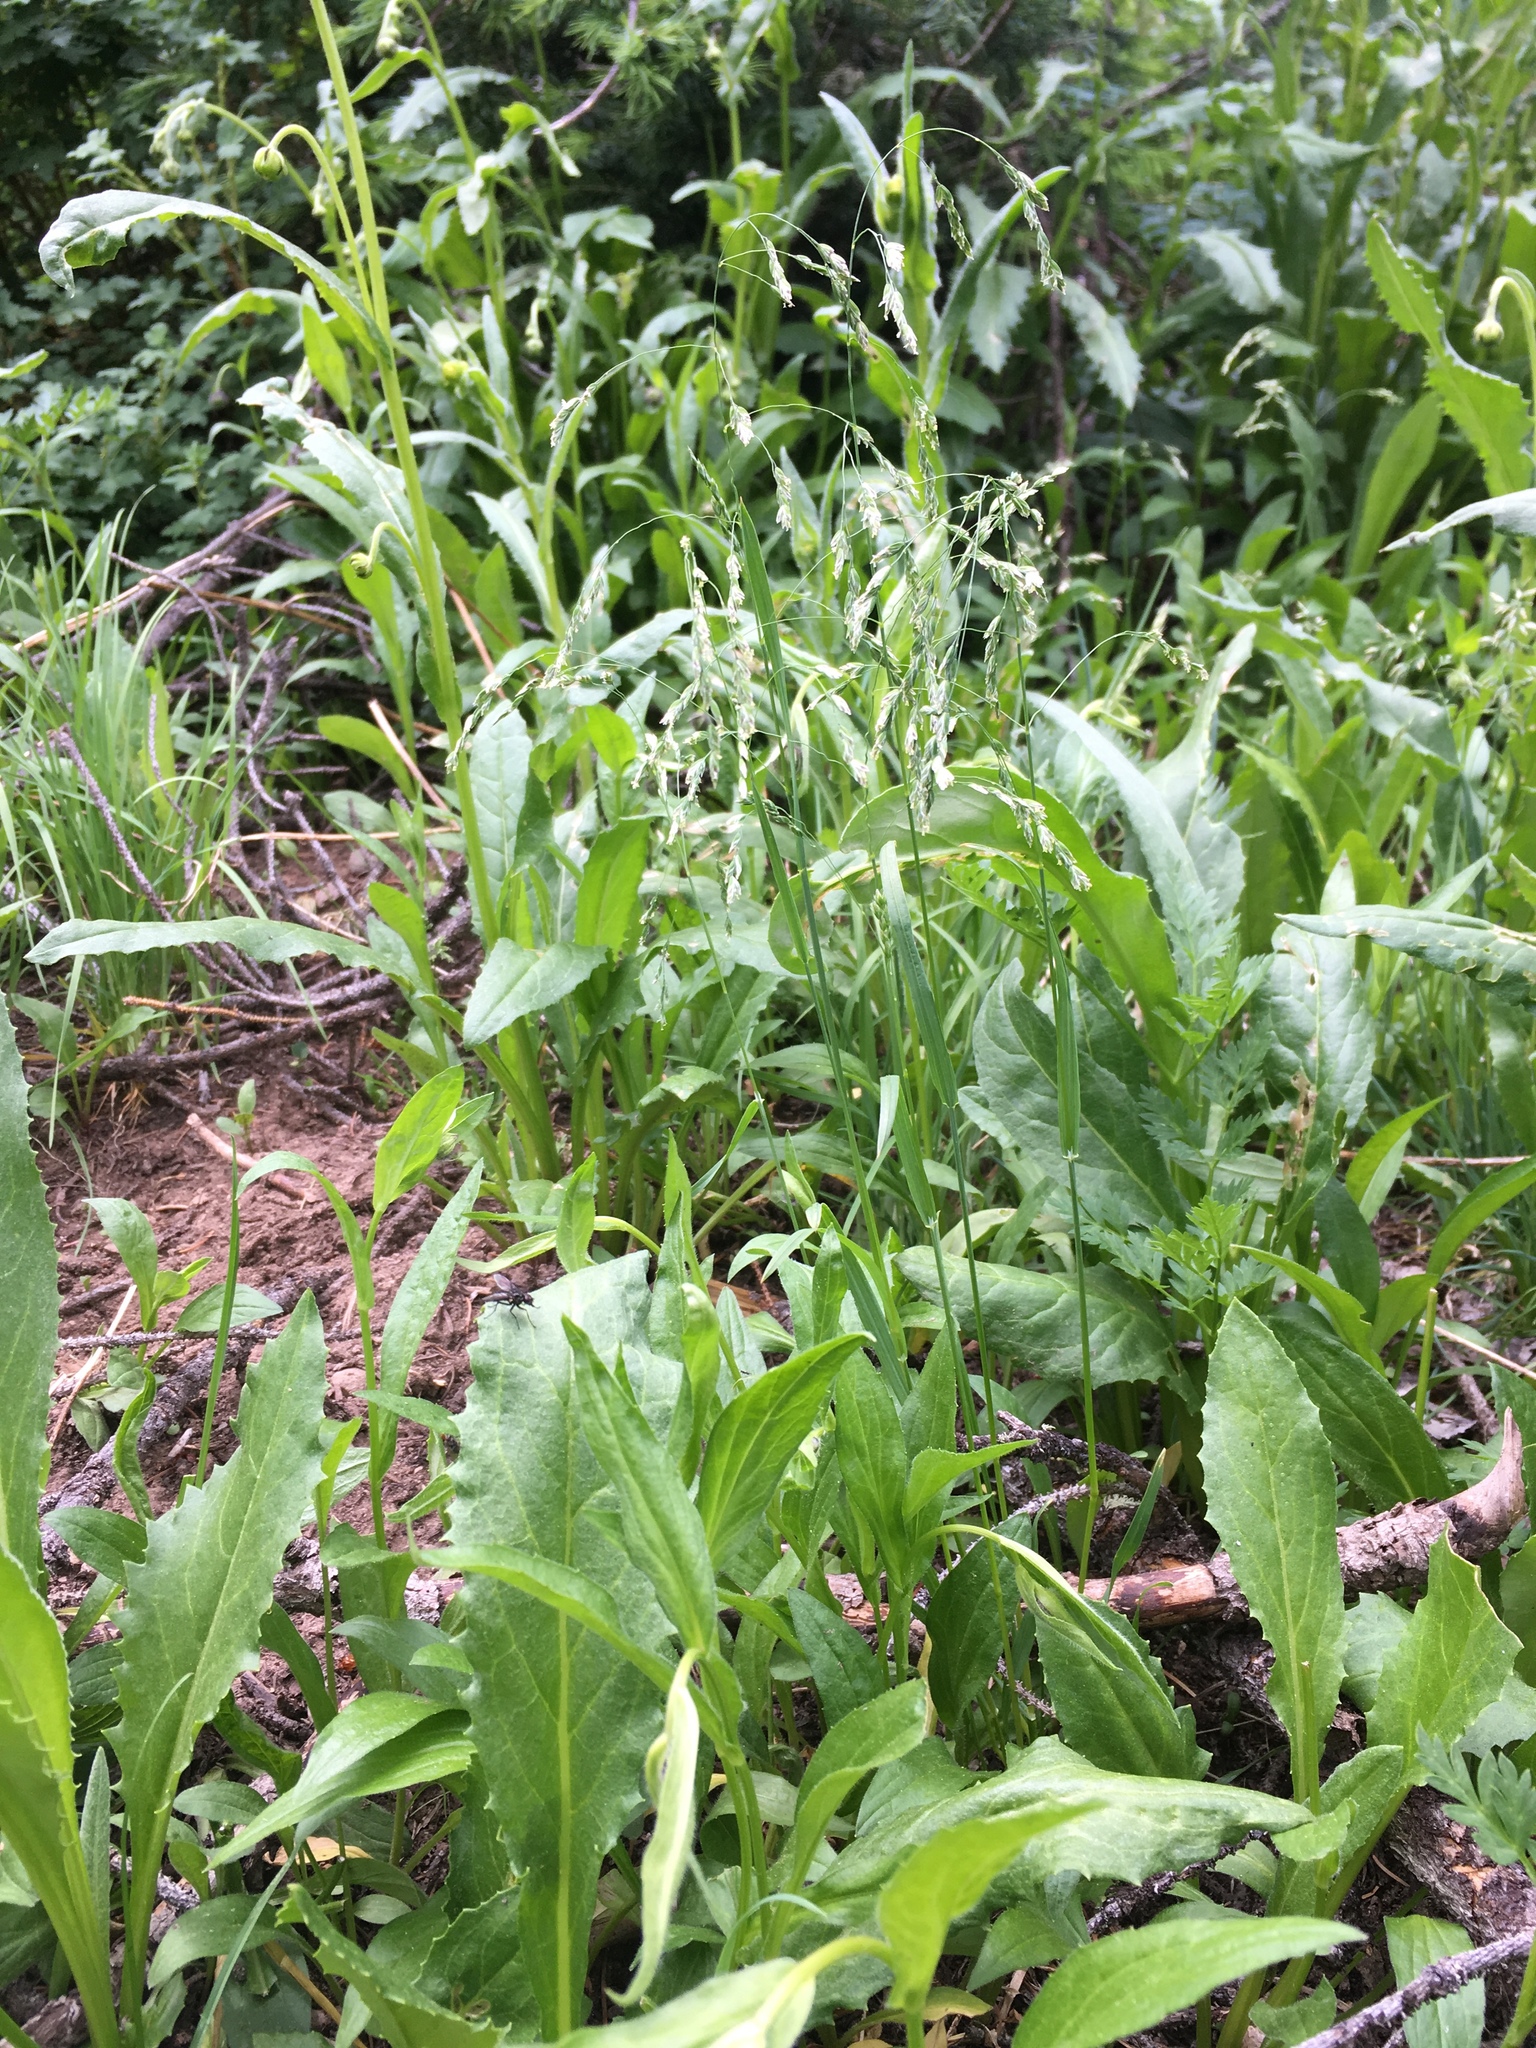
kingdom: Plantae
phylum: Tracheophyta
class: Liliopsida
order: Poales
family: Poaceae
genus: Poa
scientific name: Poa palustris
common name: Swamp meadow-grass
